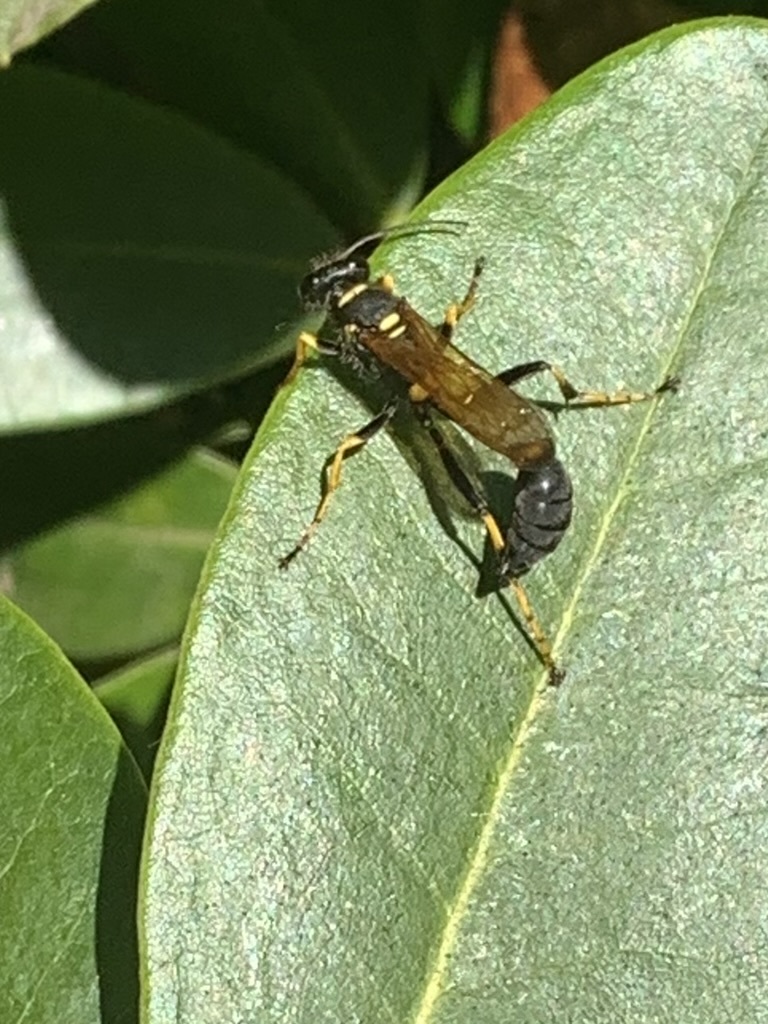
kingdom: Animalia
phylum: Arthropoda
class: Insecta
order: Hymenoptera
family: Sphecidae
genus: Sceliphron
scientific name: Sceliphron caementarium
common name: Mud dauber
